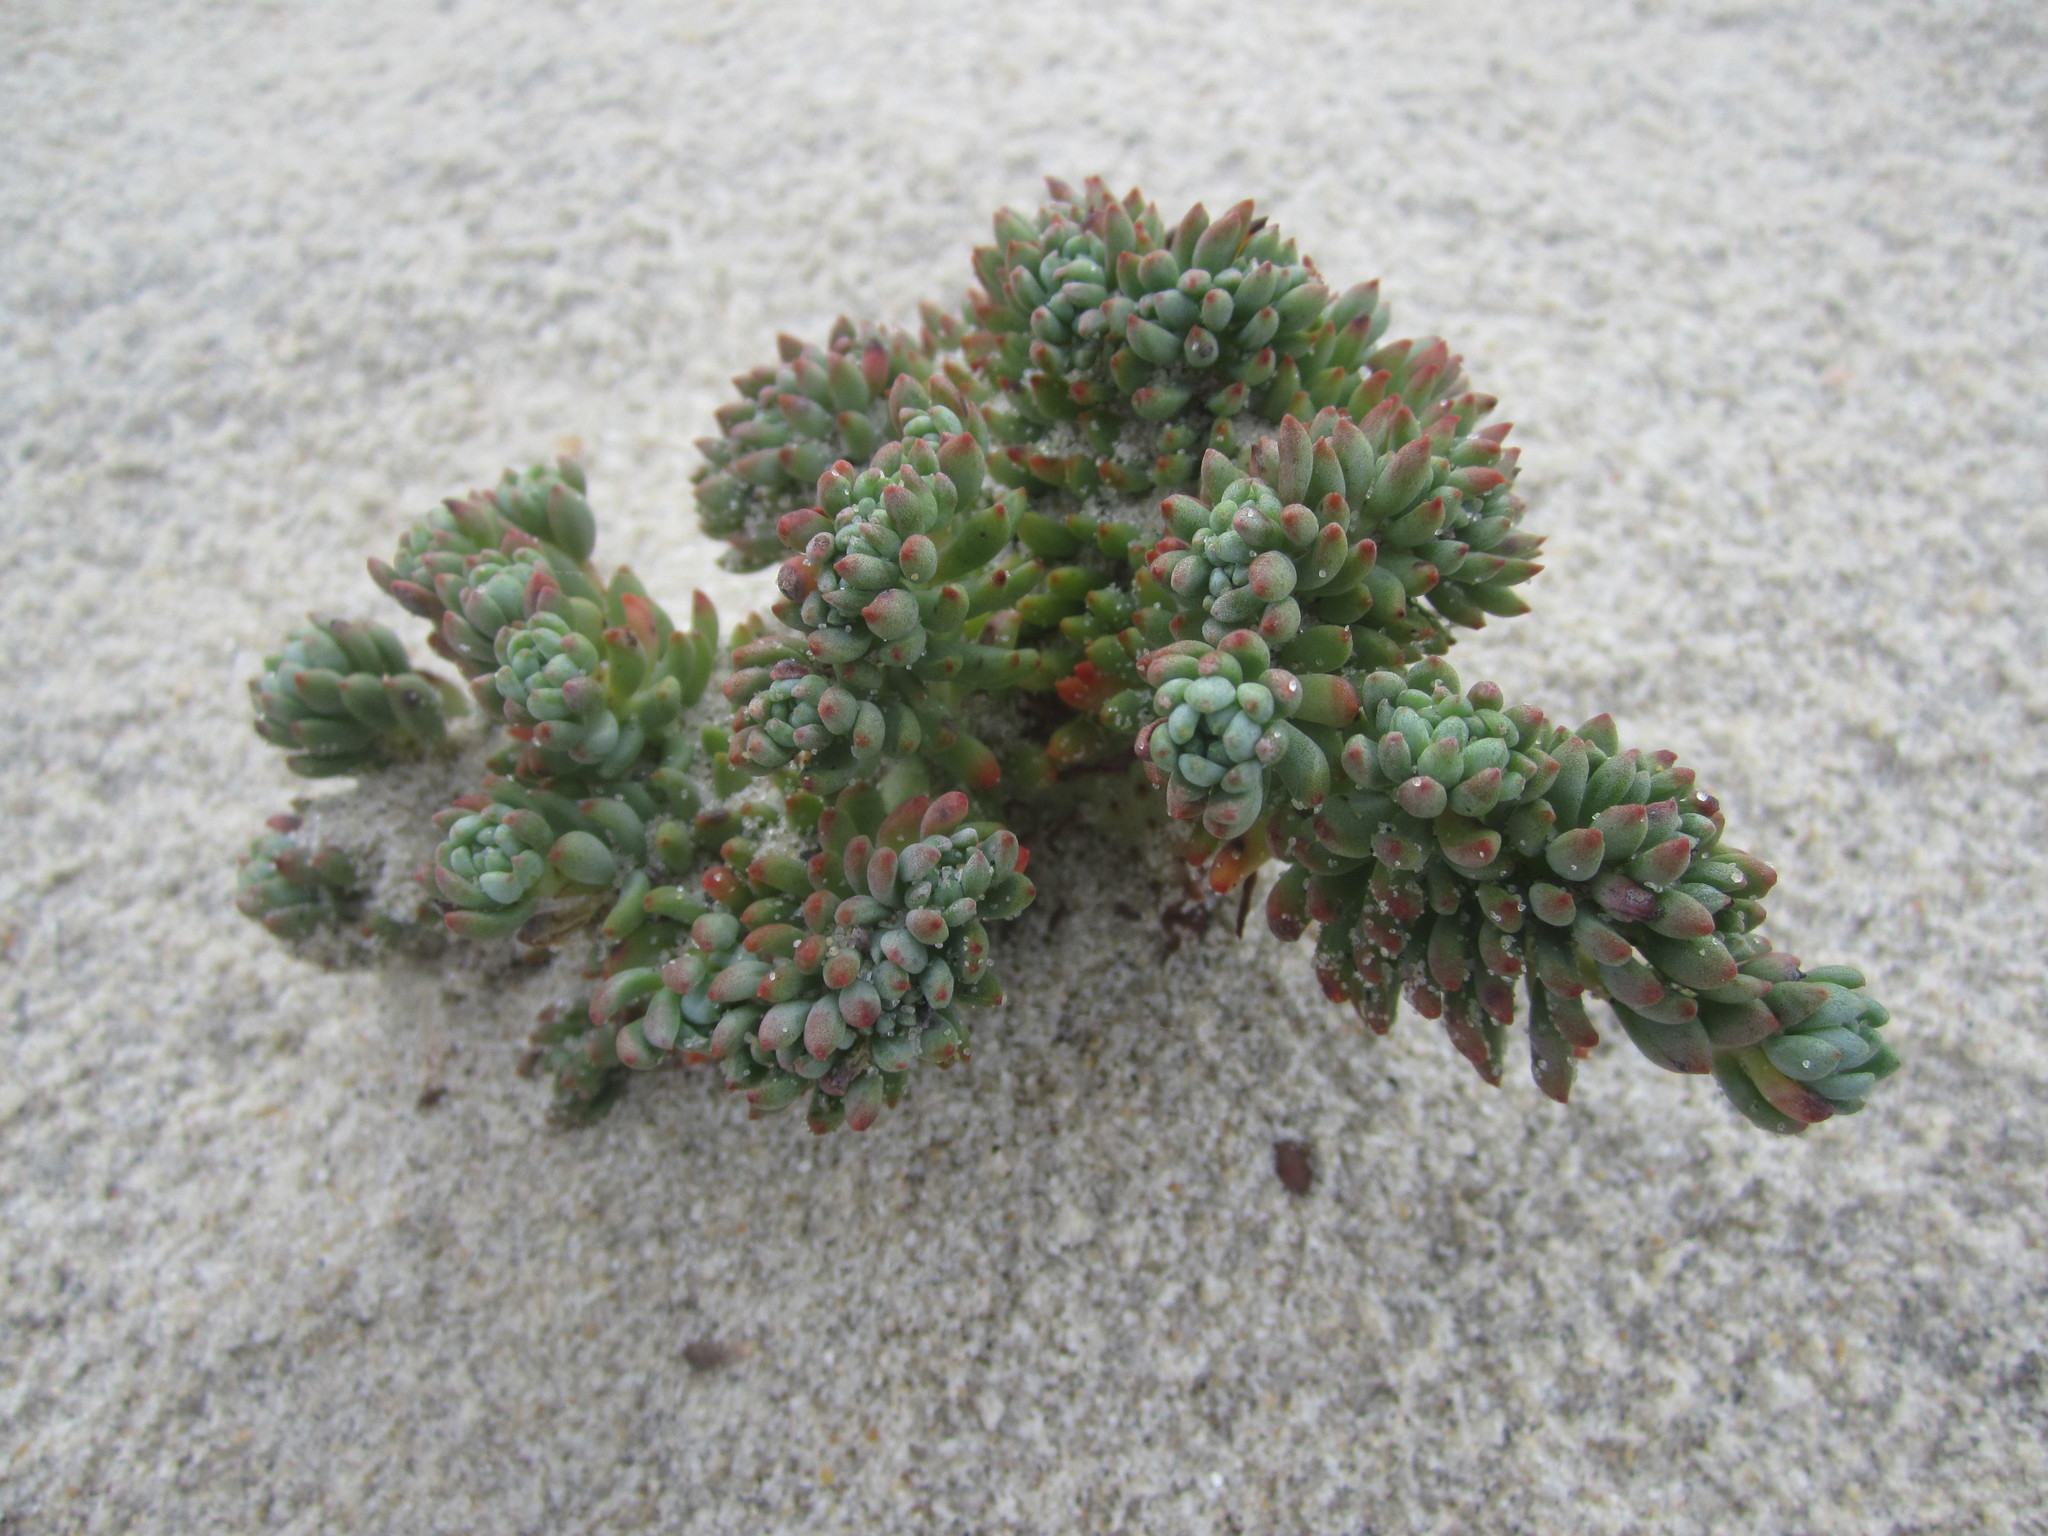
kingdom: Plantae
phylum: Tracheophyta
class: Magnoliopsida
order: Saxifragales
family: Crassulaceae
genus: Petrosedum
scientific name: Petrosedum sediforme
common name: Pale stonecrop
